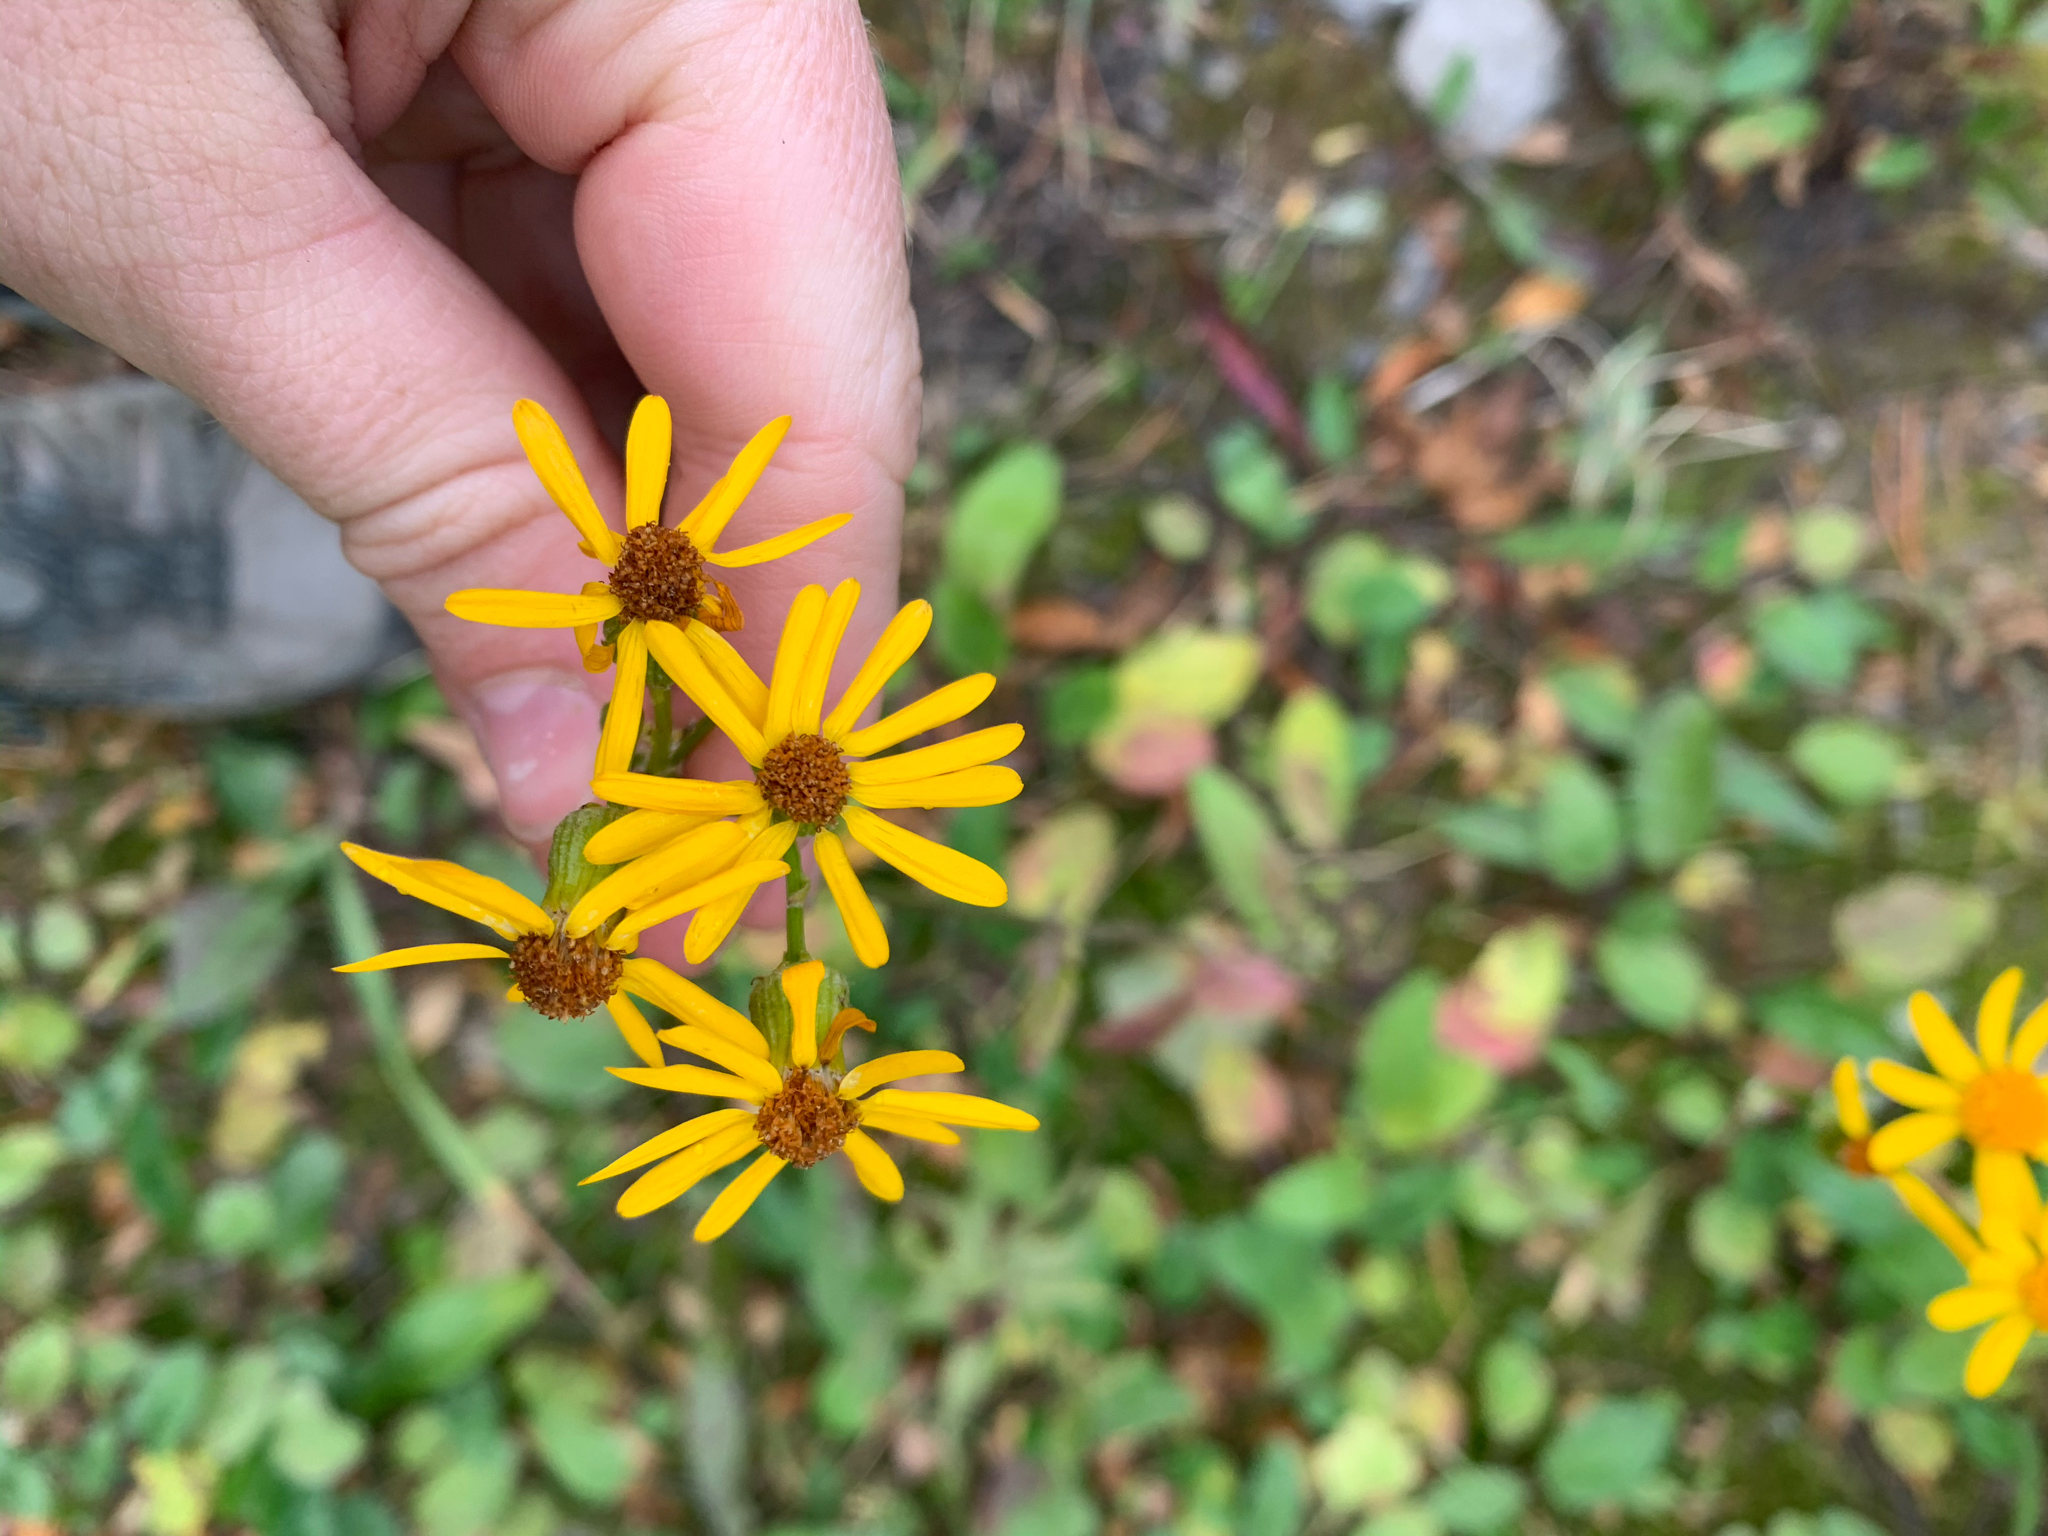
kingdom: Plantae
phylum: Tracheophyta
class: Magnoliopsida
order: Asterales
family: Asteraceae
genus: Packera
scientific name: Packera
